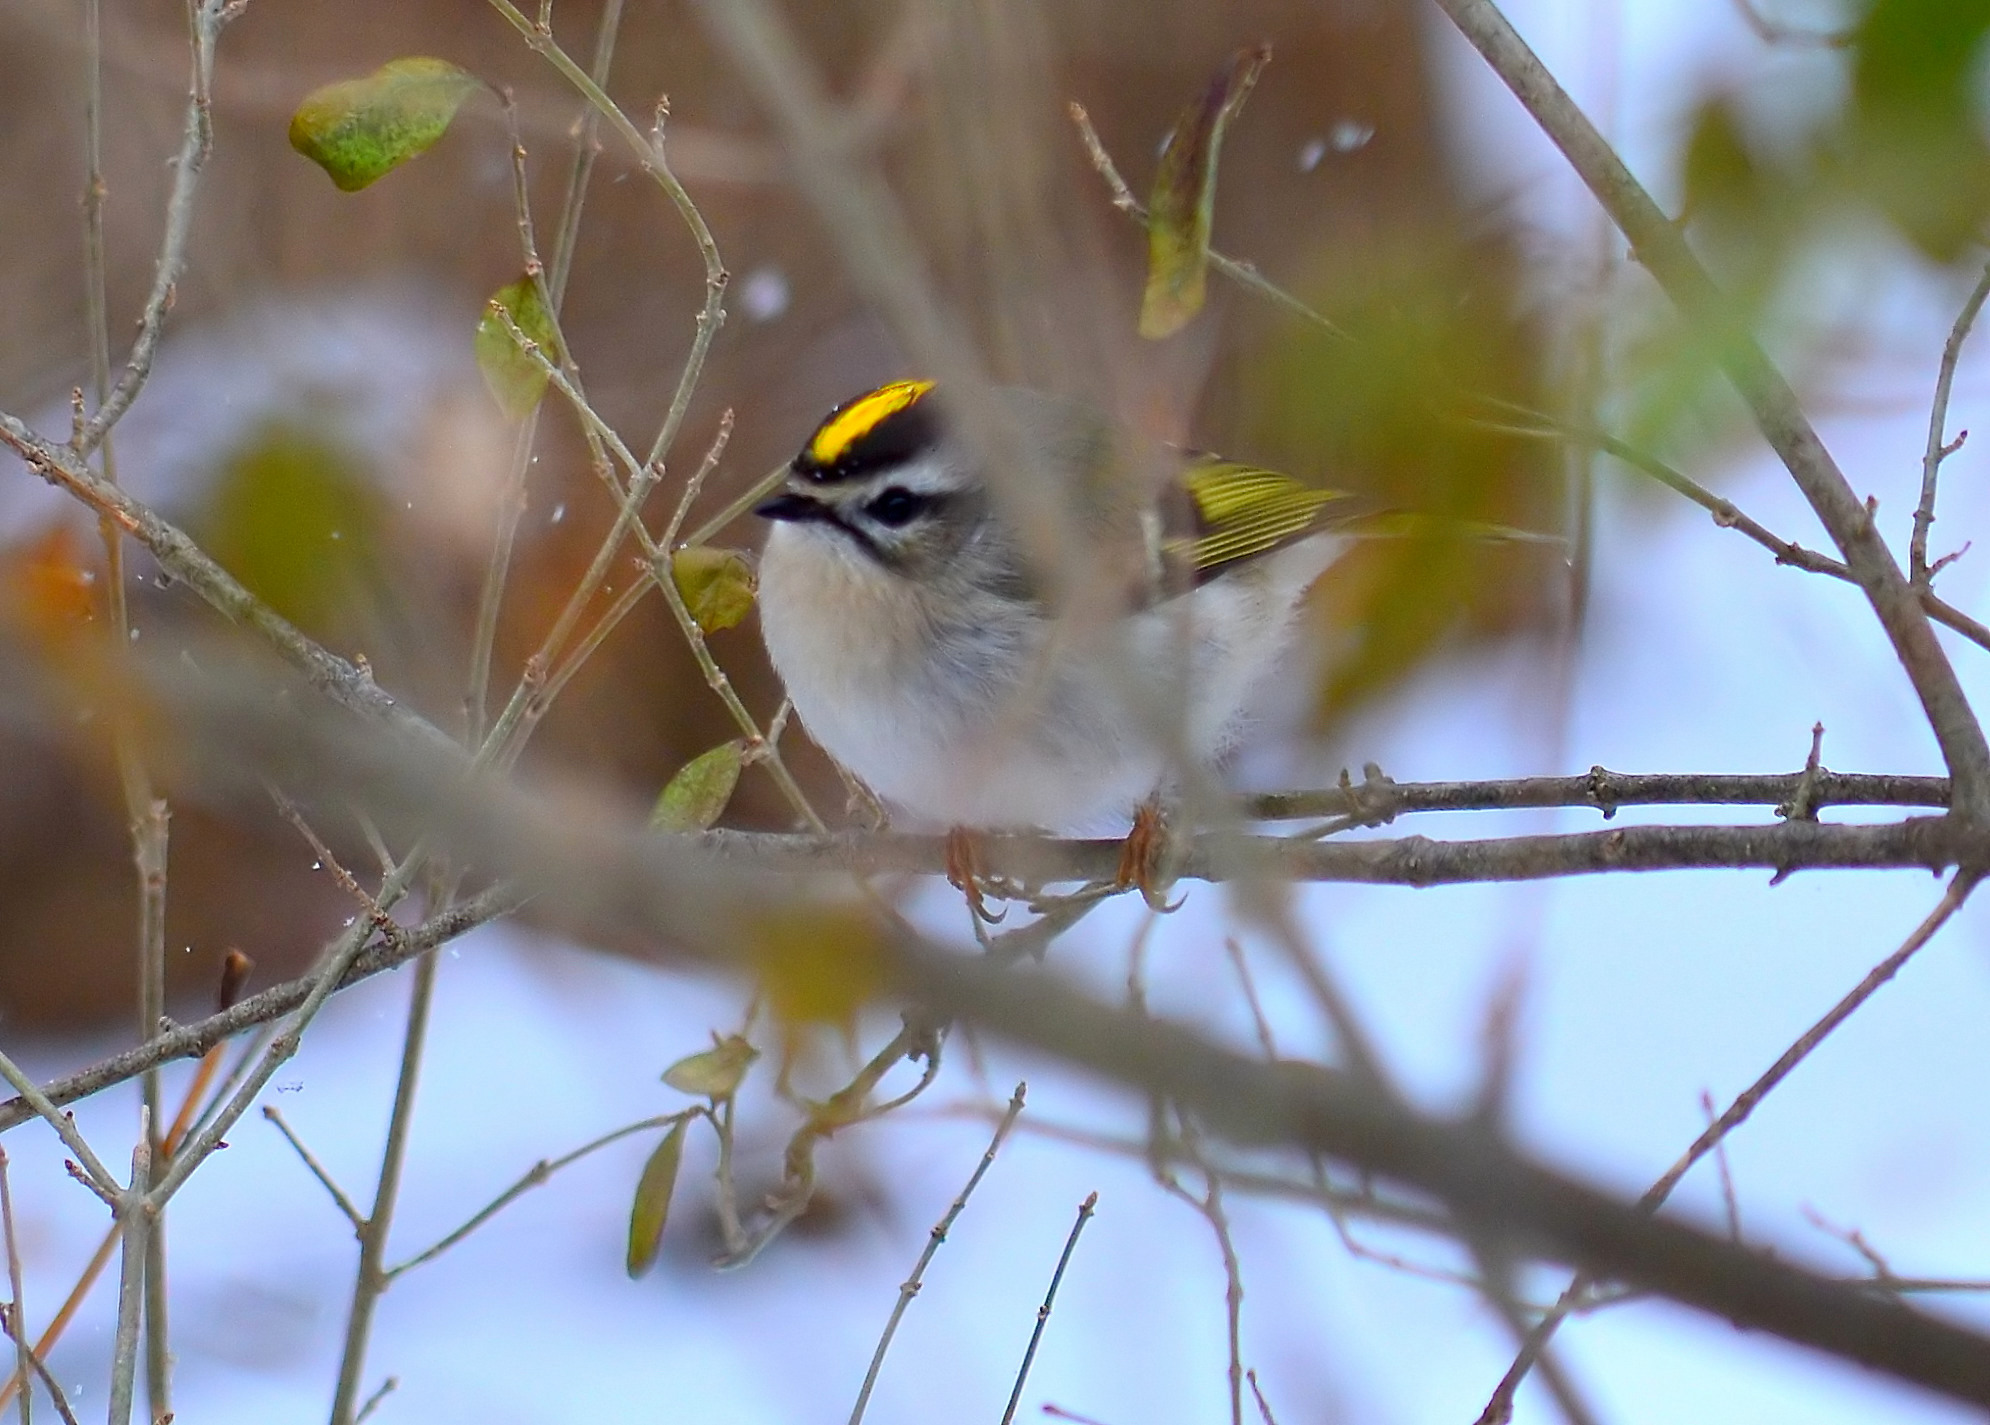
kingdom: Animalia
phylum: Chordata
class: Aves
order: Passeriformes
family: Regulidae
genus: Regulus
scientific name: Regulus satrapa
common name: Golden-crowned kinglet
